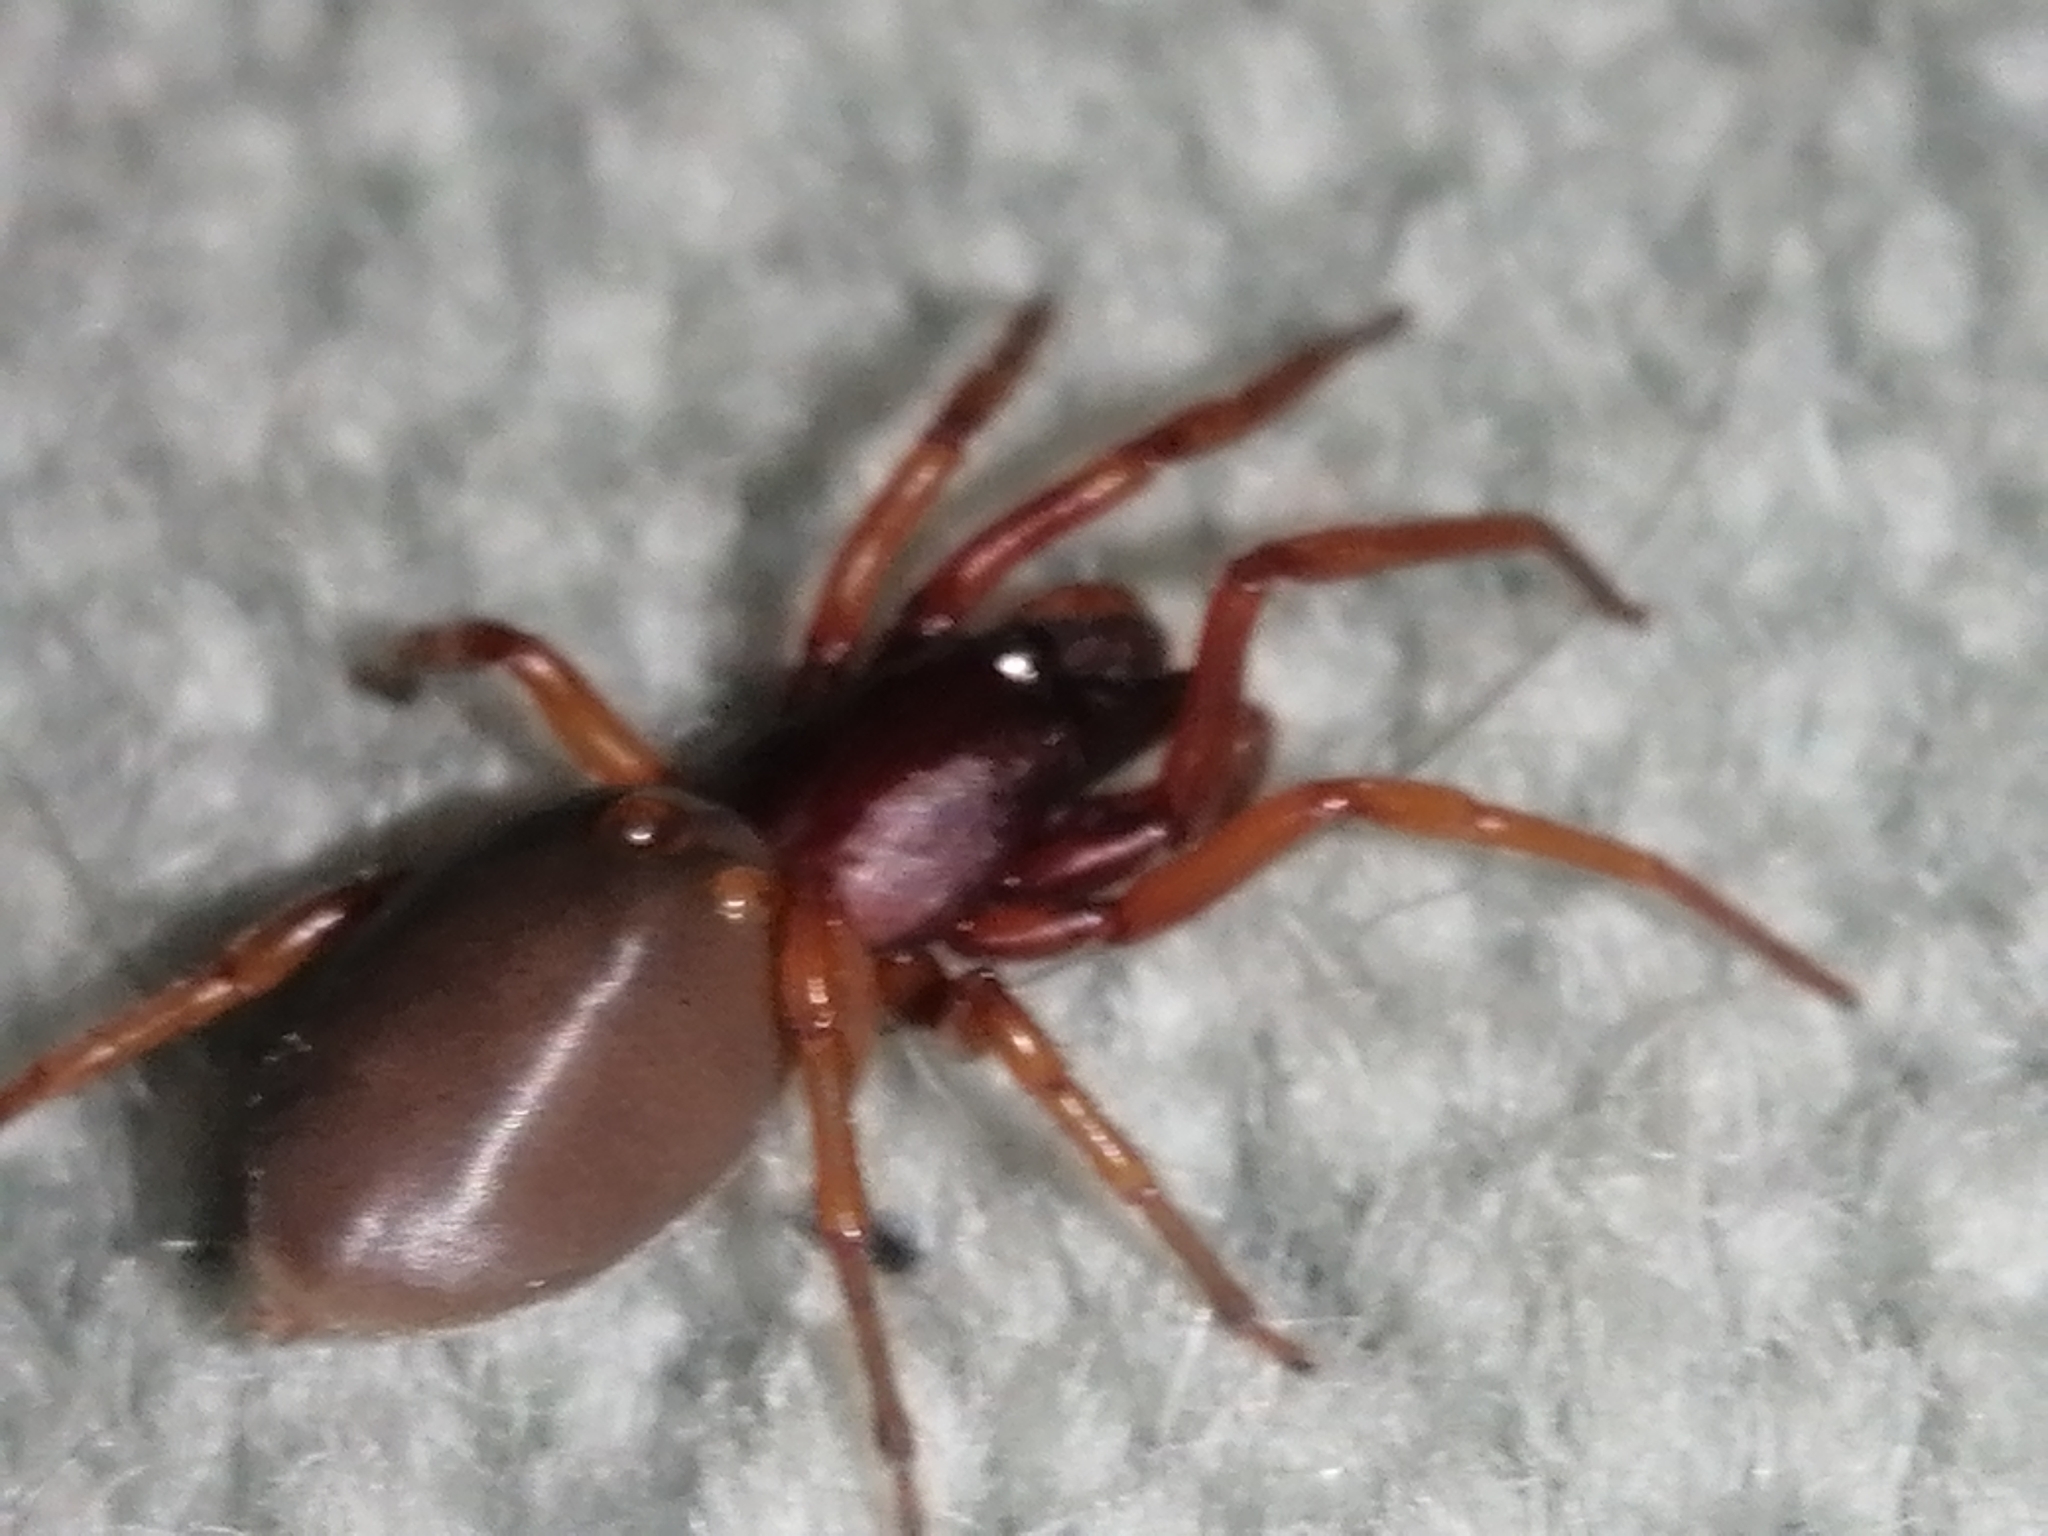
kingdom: Animalia
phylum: Arthropoda
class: Arachnida
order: Araneae
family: Dysderidae
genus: Dysdera
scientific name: Dysdera crocata
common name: Woodlouse spider
